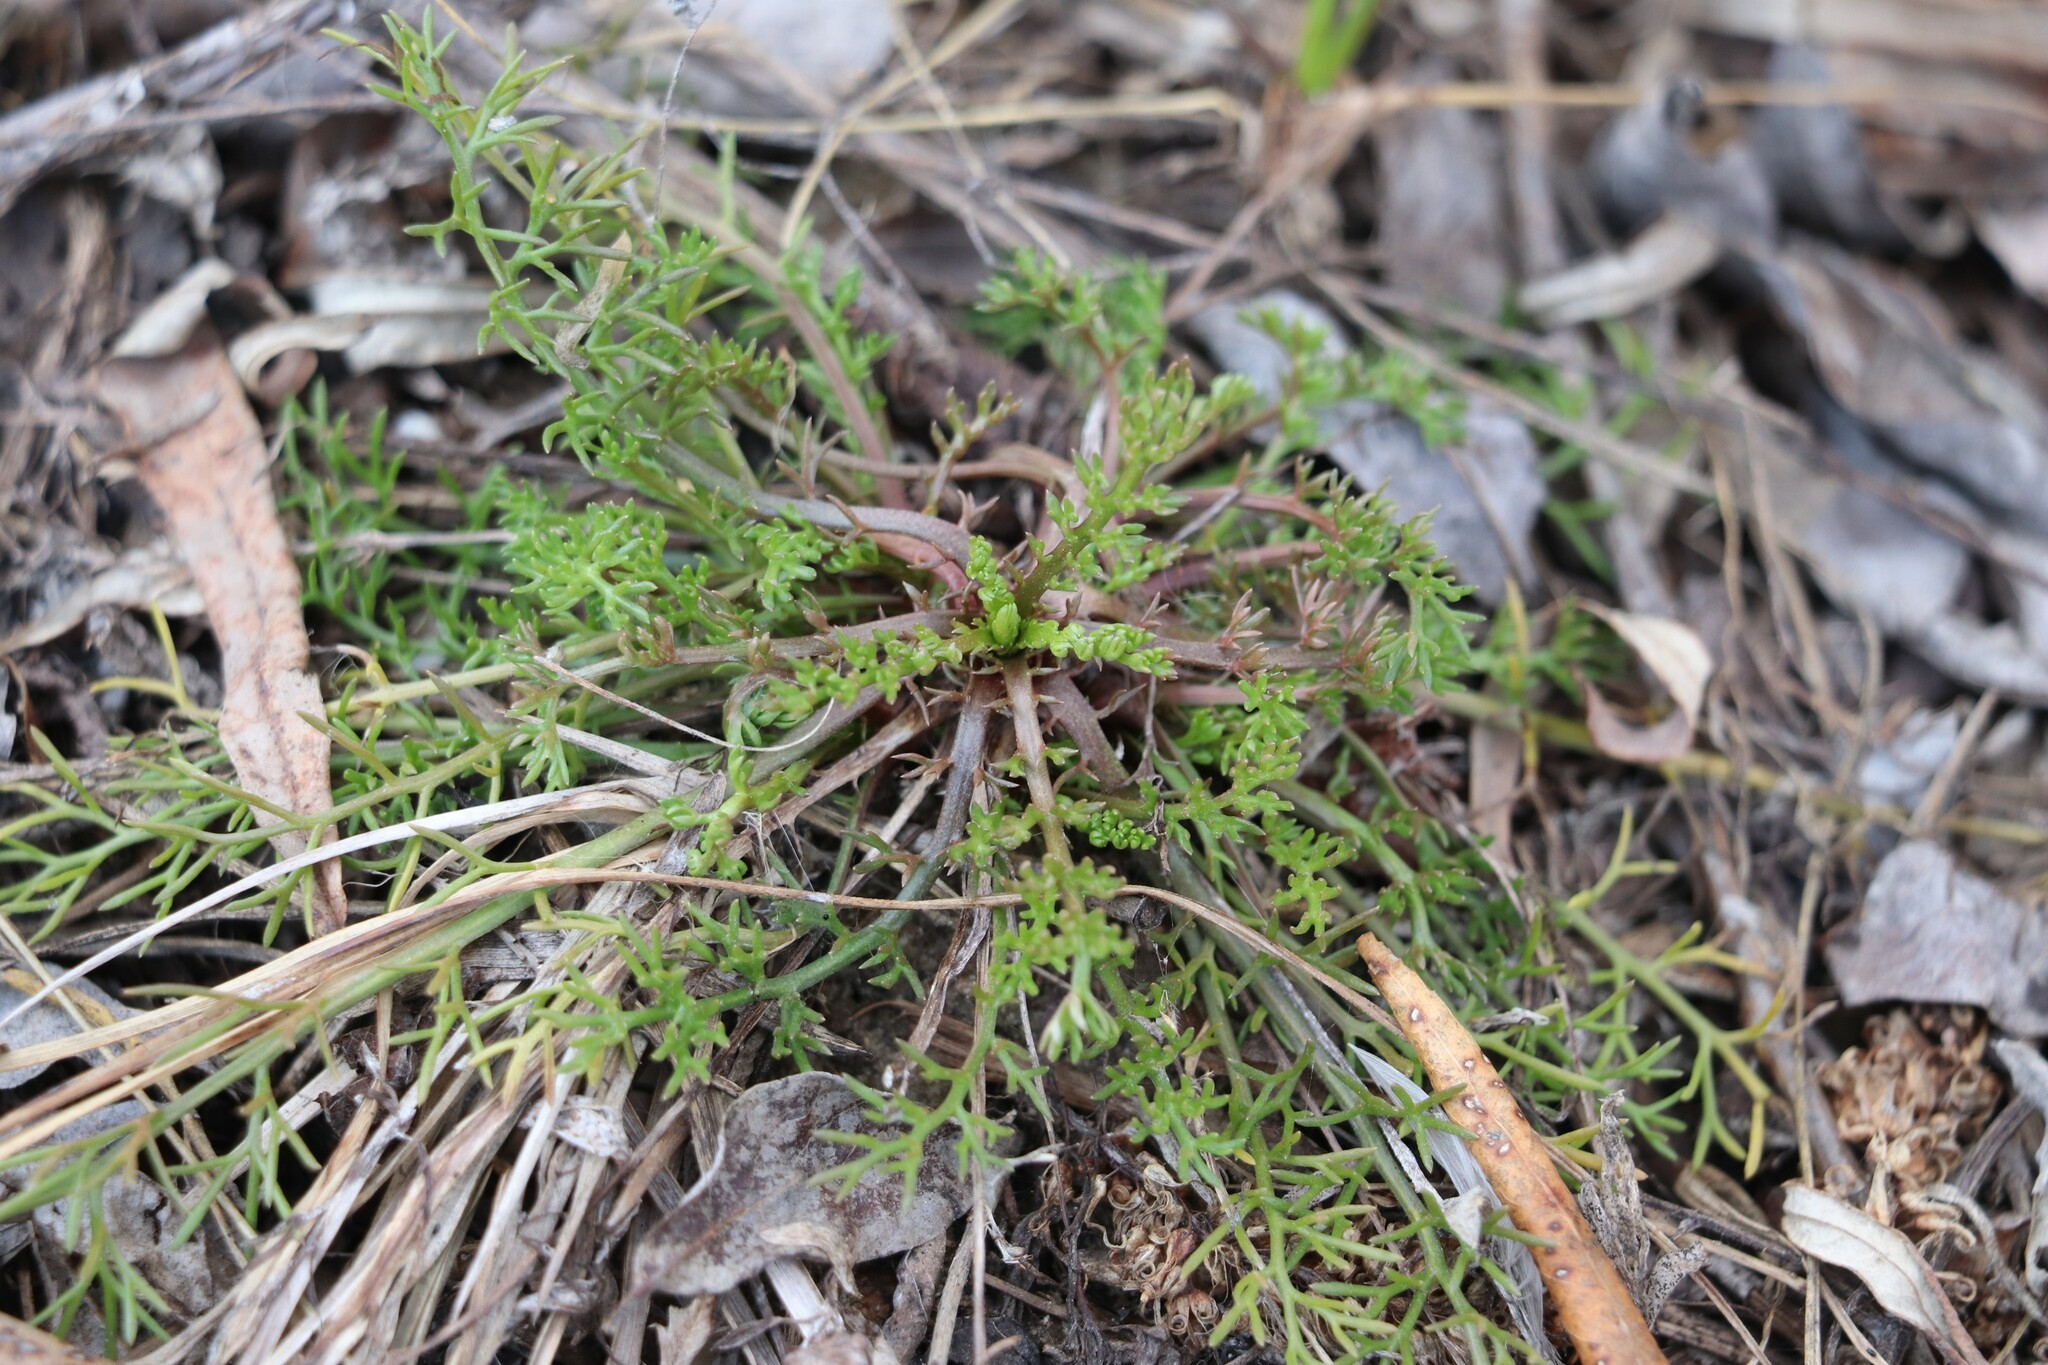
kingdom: Plantae
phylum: Tracheophyta
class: Magnoliopsida
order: Asterales
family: Asteraceae
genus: Tripleurospermum
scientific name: Tripleurospermum inodorum
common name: Scentless mayweed
